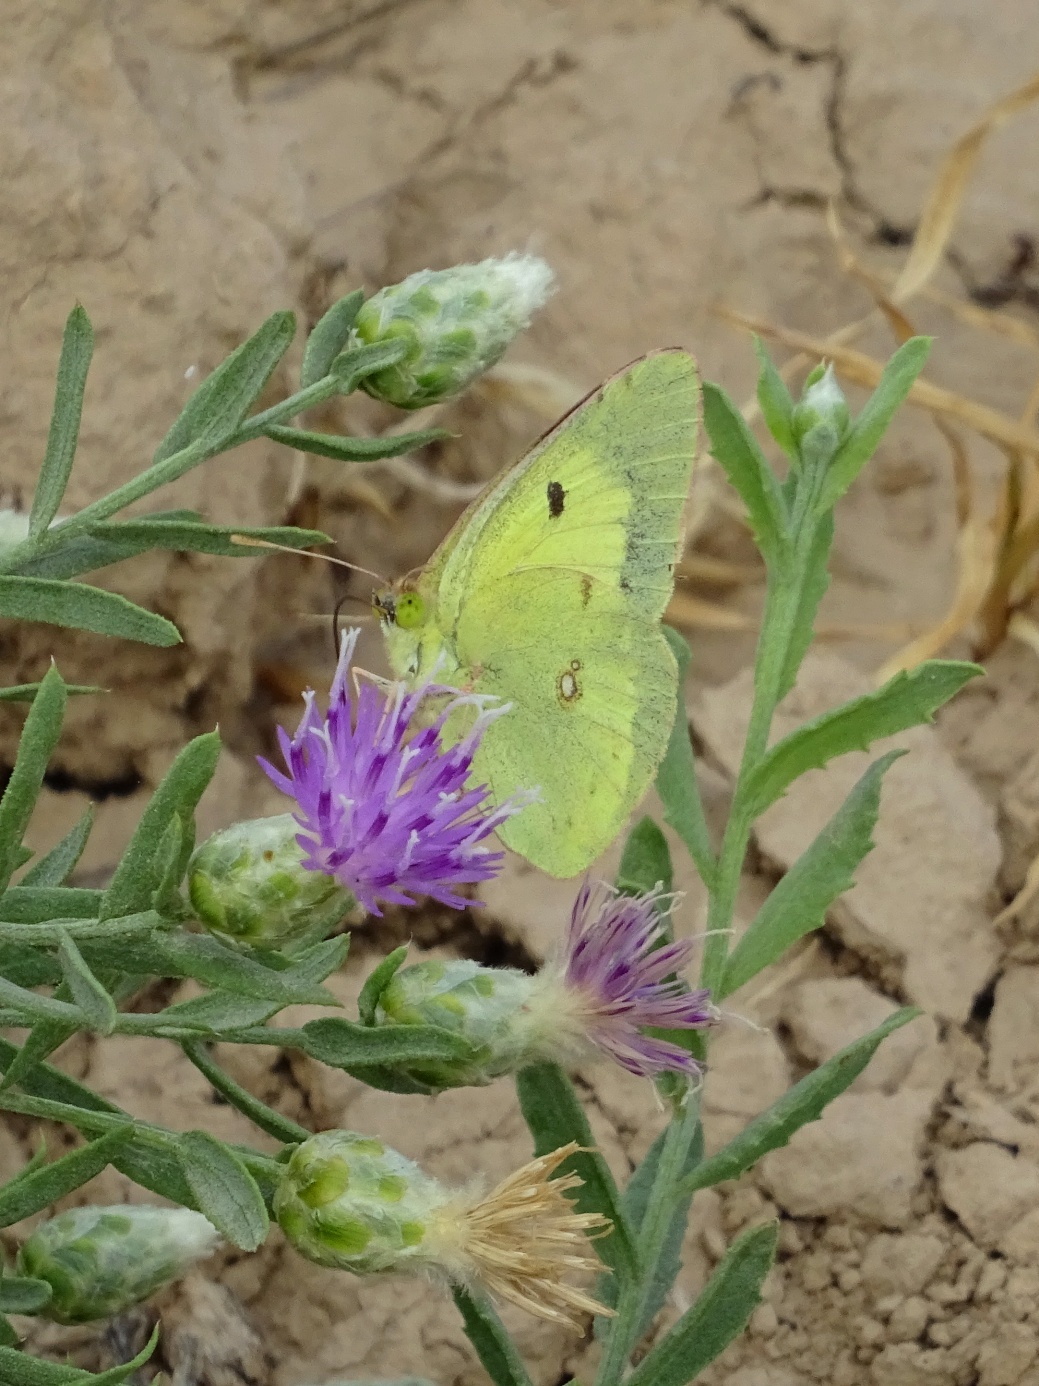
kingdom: Animalia
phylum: Arthropoda
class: Insecta
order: Lepidoptera
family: Pieridae
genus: Colias
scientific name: Colias erate
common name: Eastern pale clouded yellow
